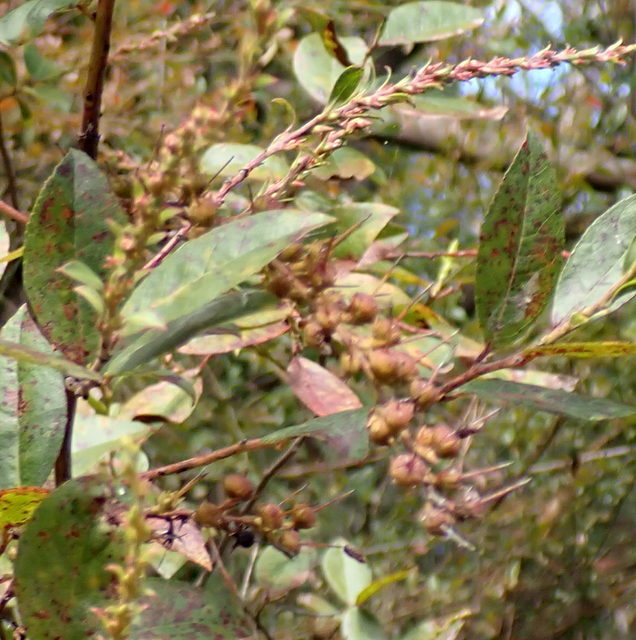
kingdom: Plantae
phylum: Tracheophyta
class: Magnoliopsida
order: Ericales
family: Ericaceae
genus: Eubotrys
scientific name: Eubotrys racemosa
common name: Fetterbush
